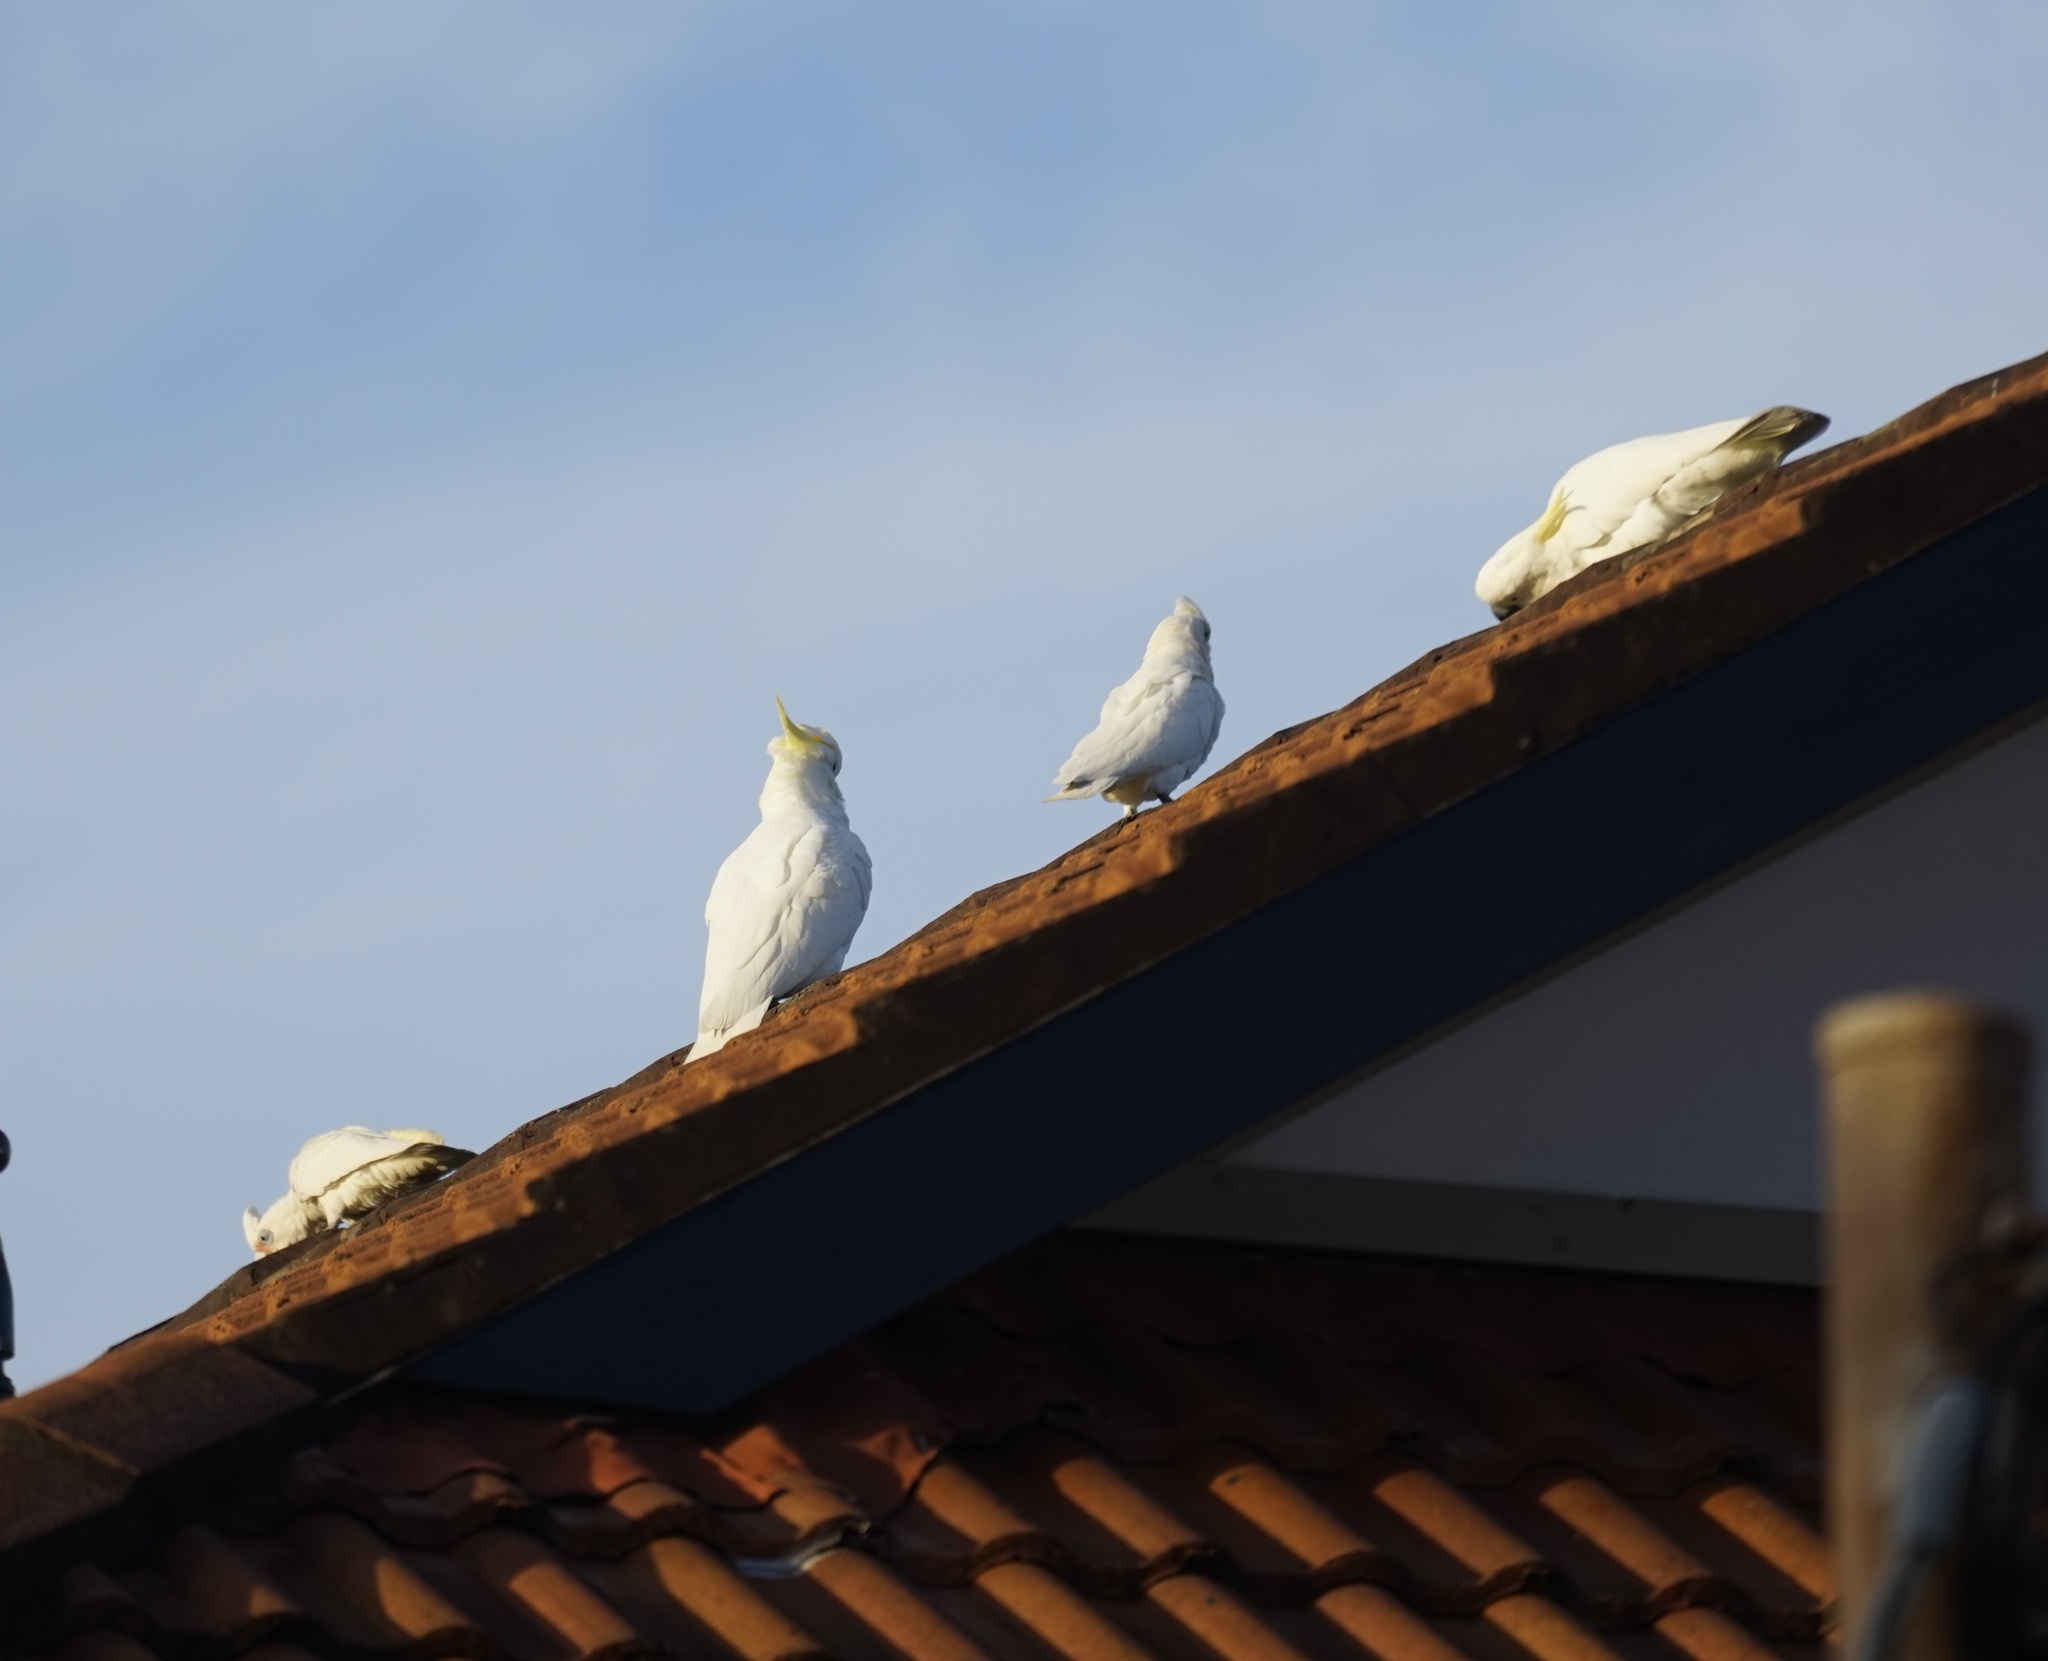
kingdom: Animalia
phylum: Chordata
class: Aves
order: Psittaciformes
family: Psittacidae
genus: Cacatua
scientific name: Cacatua galerita
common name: Sulphur-crested cockatoo
